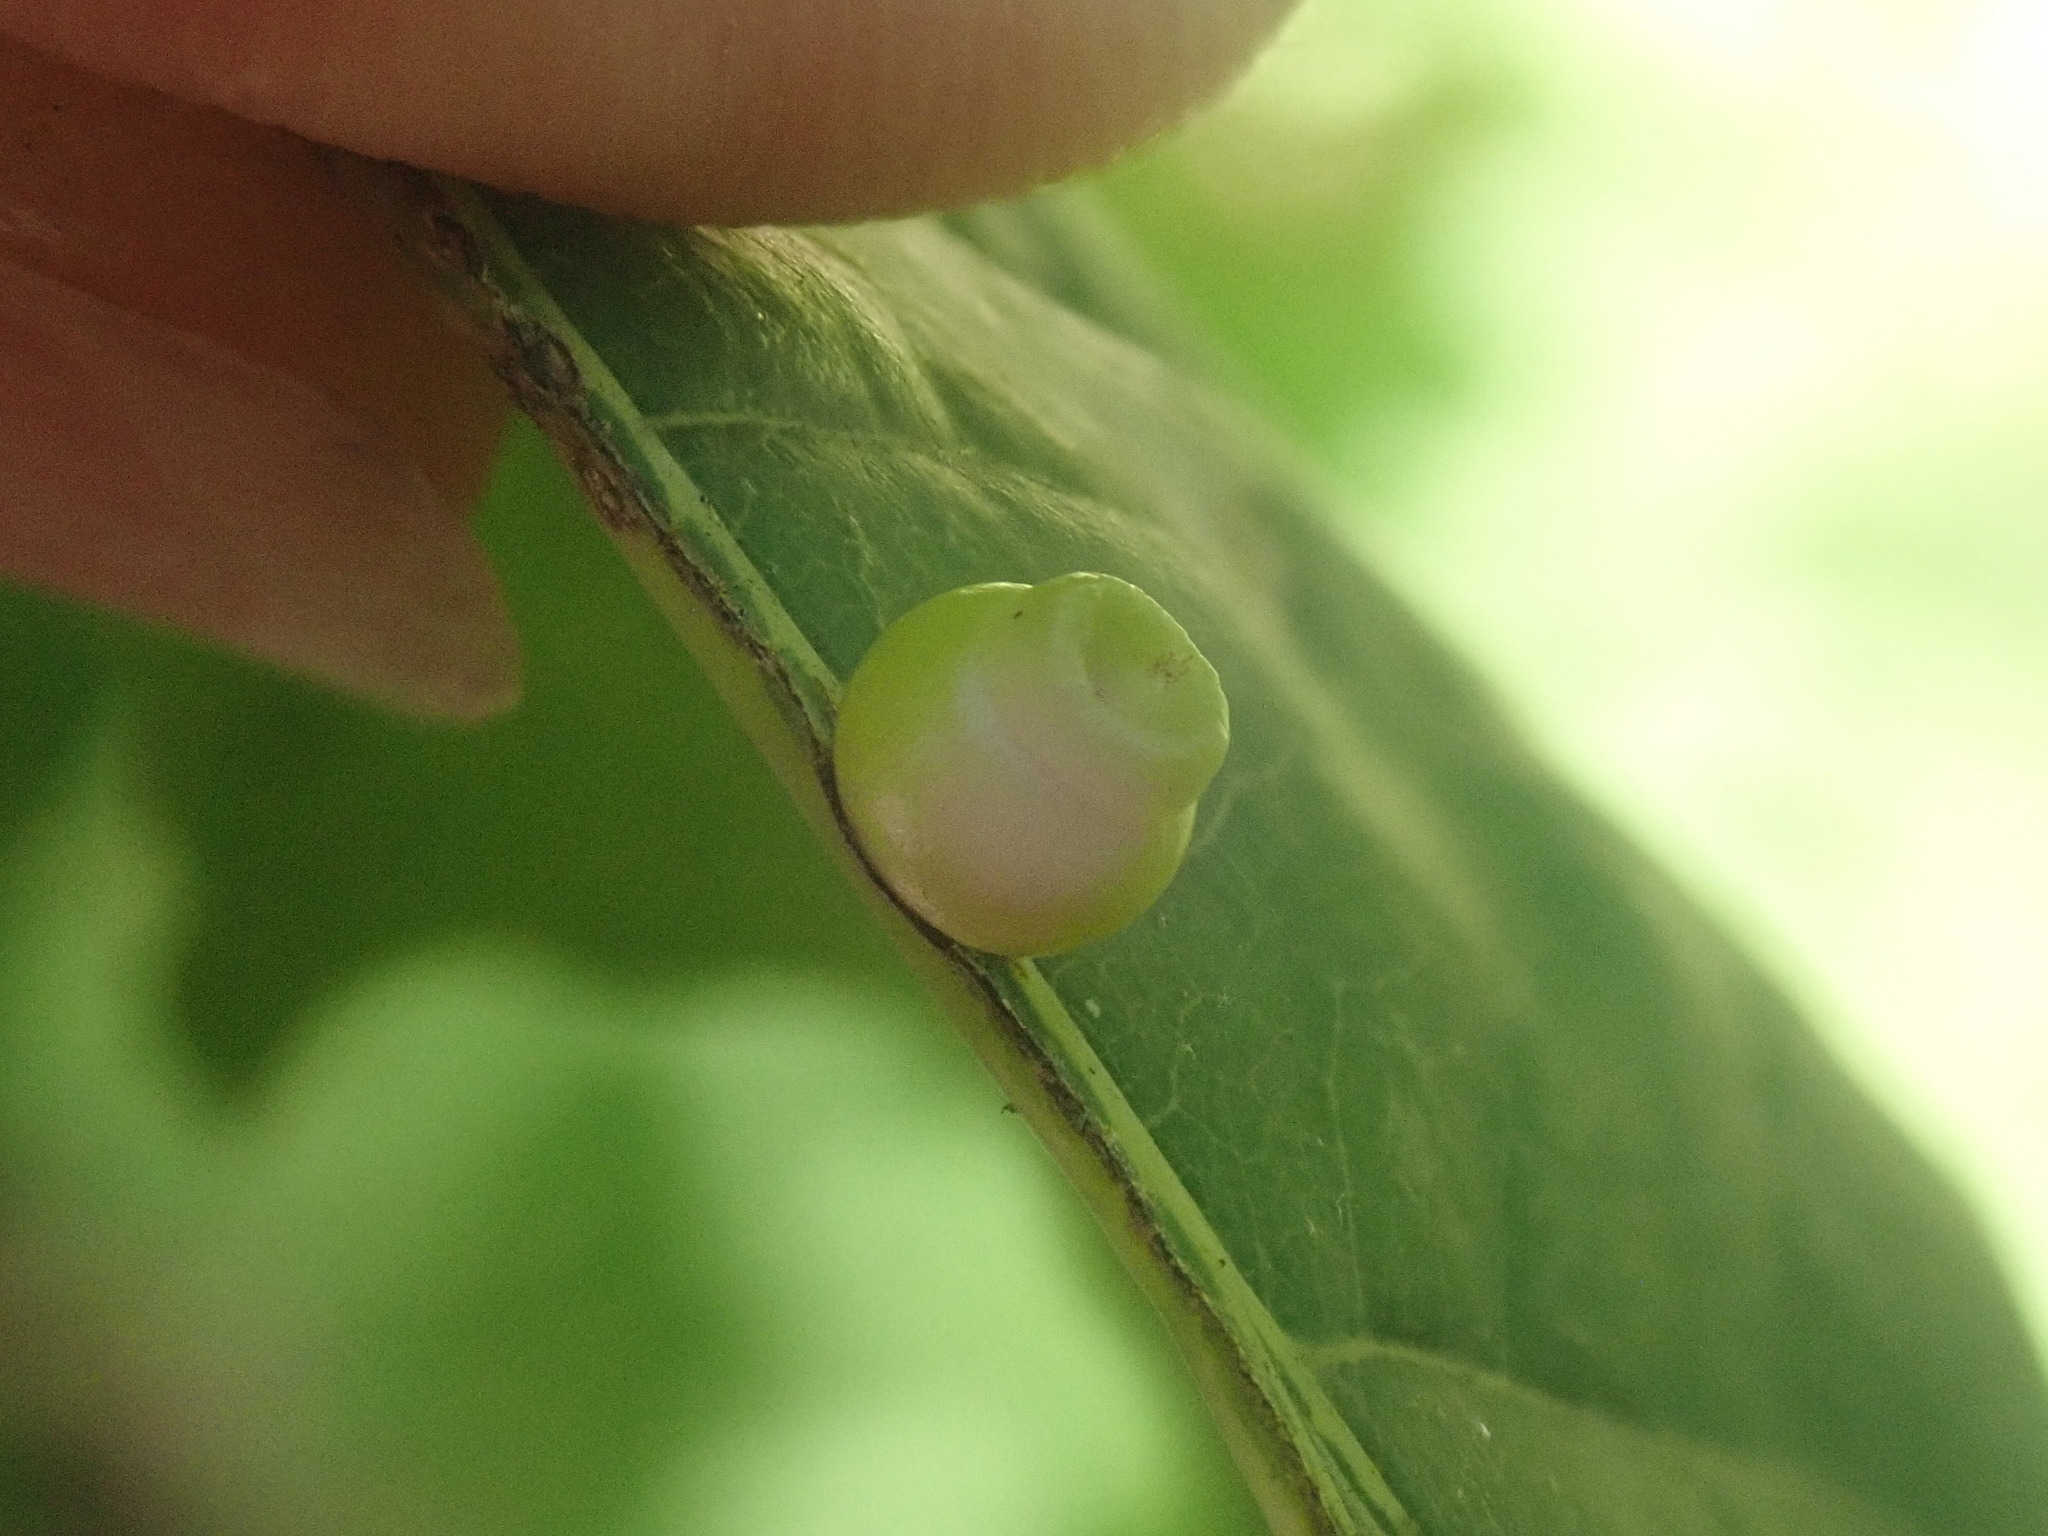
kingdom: Animalia
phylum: Arthropoda
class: Insecta
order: Hymenoptera
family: Cynipidae
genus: Kokkocynips
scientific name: Kokkocynips rileyi
